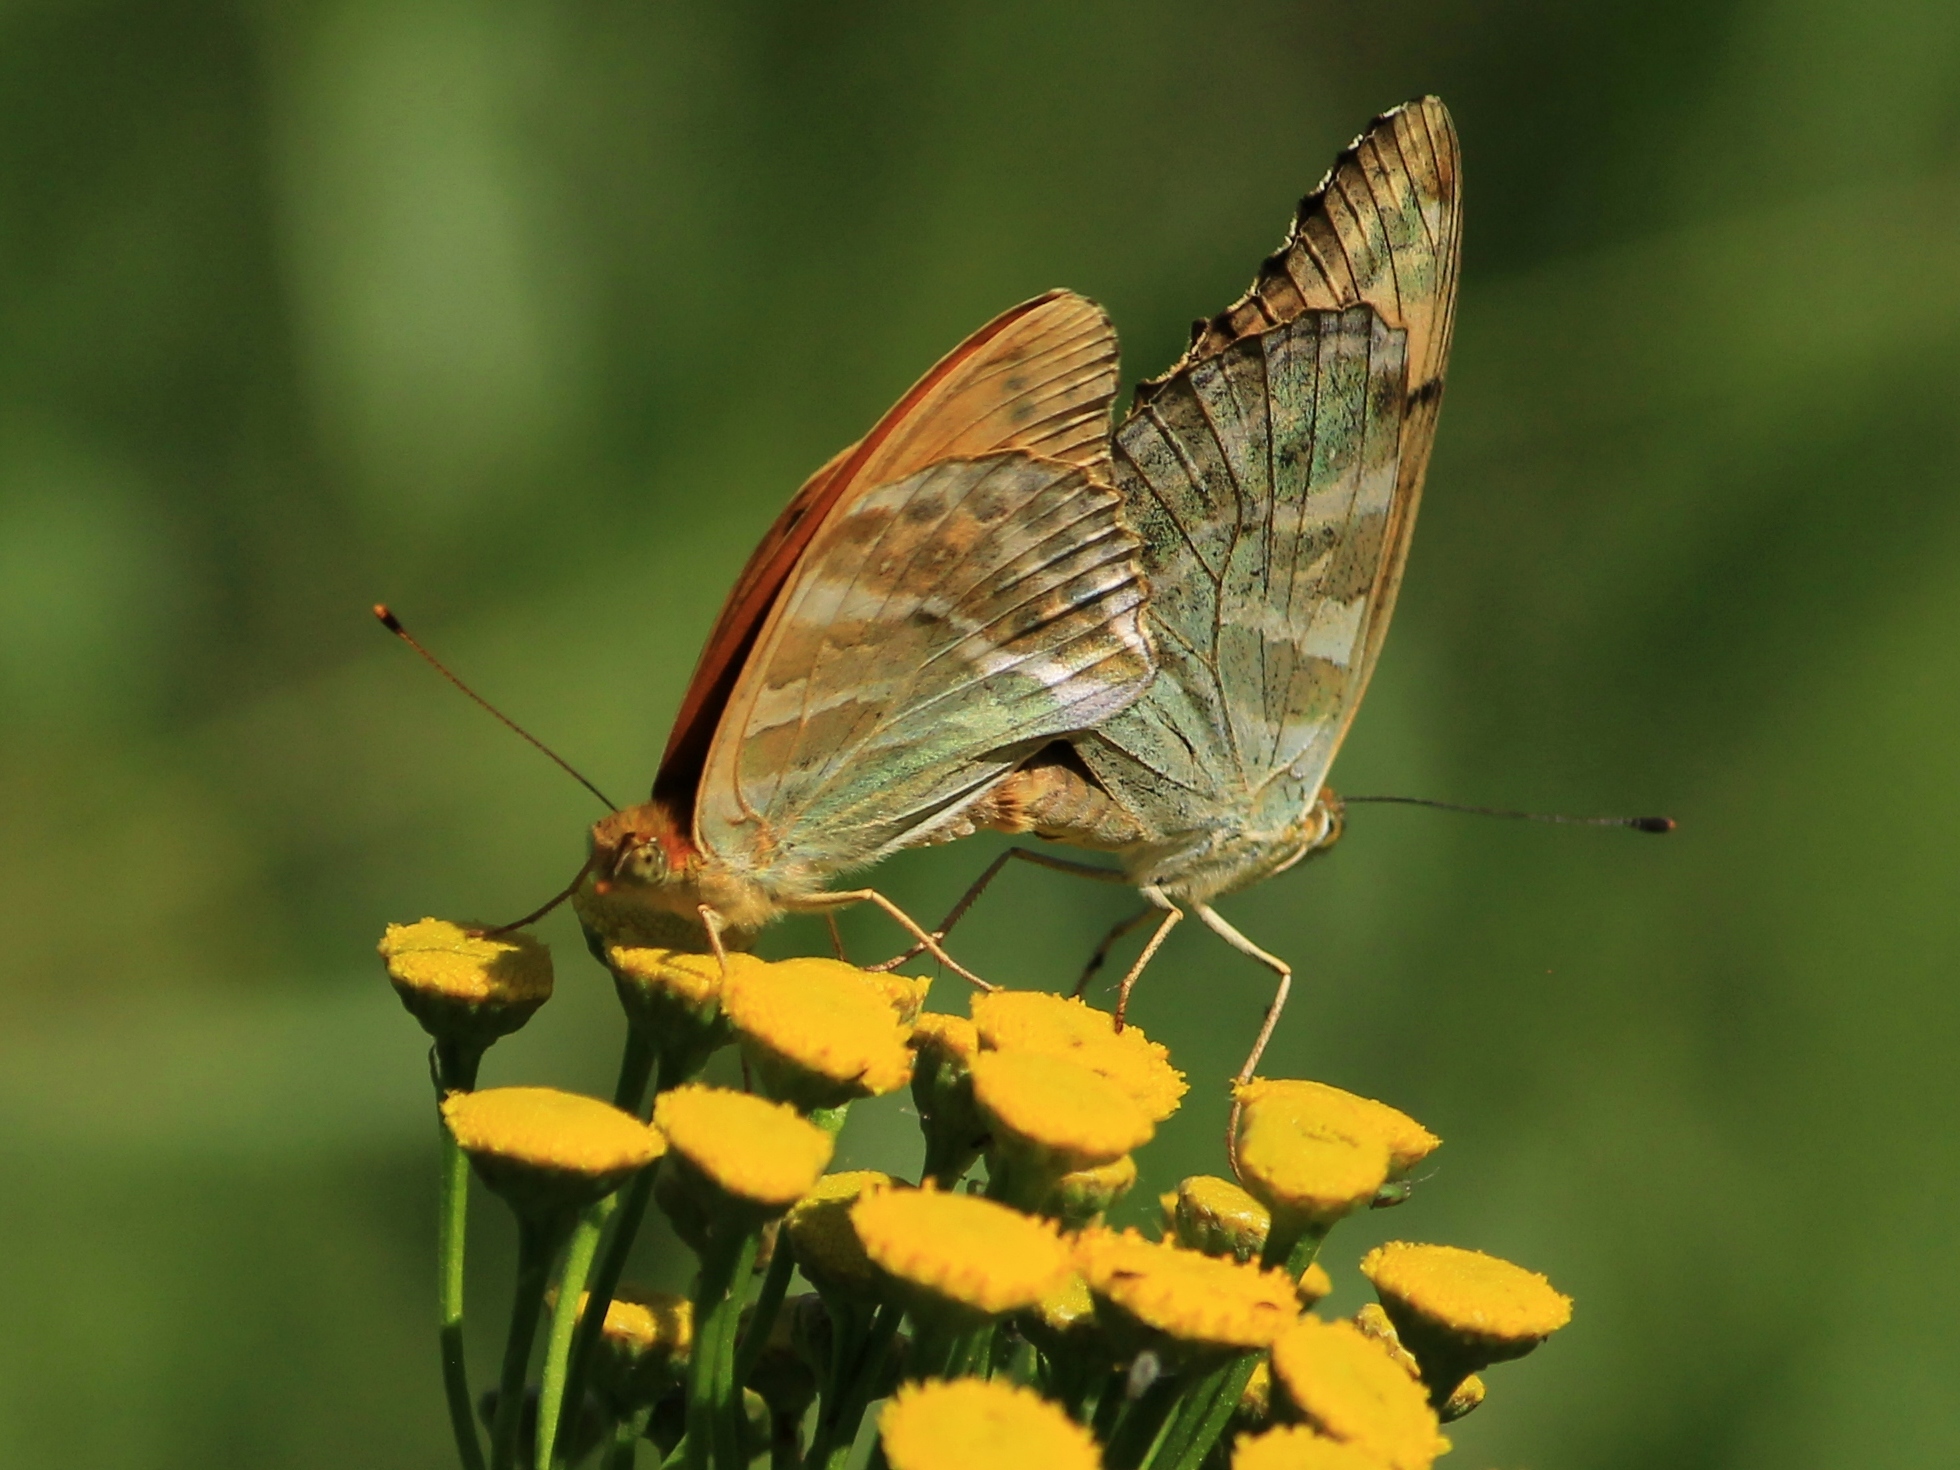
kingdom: Animalia
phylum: Arthropoda
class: Insecta
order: Lepidoptera
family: Nymphalidae
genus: Argynnis
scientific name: Argynnis paphia
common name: Silver-washed fritillary
